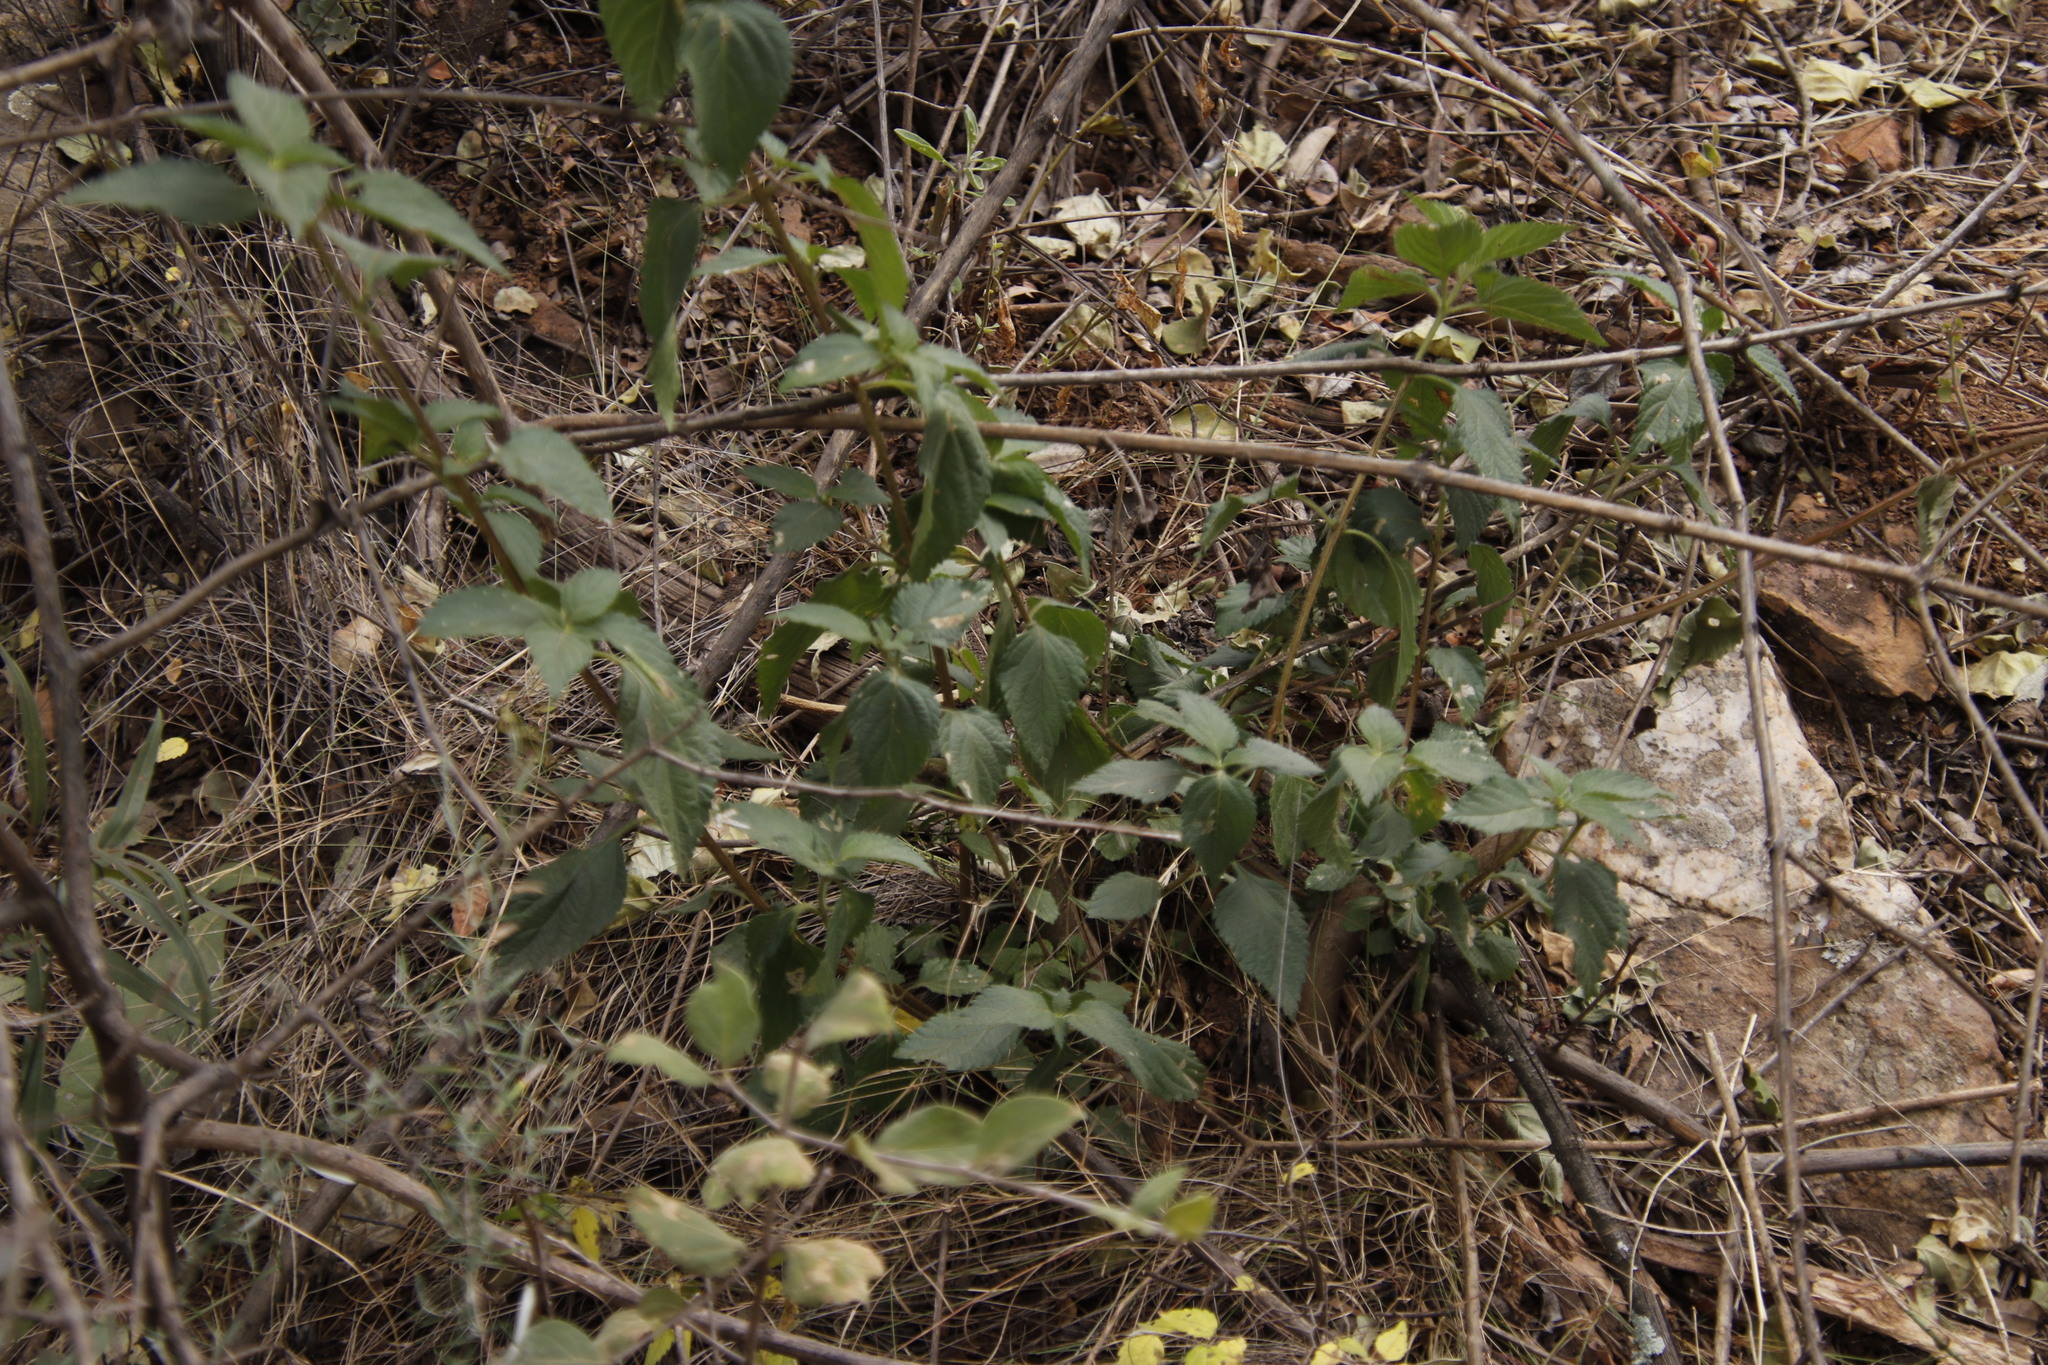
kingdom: Plantae
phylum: Tracheophyta
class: Magnoliopsida
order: Lamiales
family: Verbenaceae
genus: Lantana
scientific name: Lantana camara
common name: Lantana
